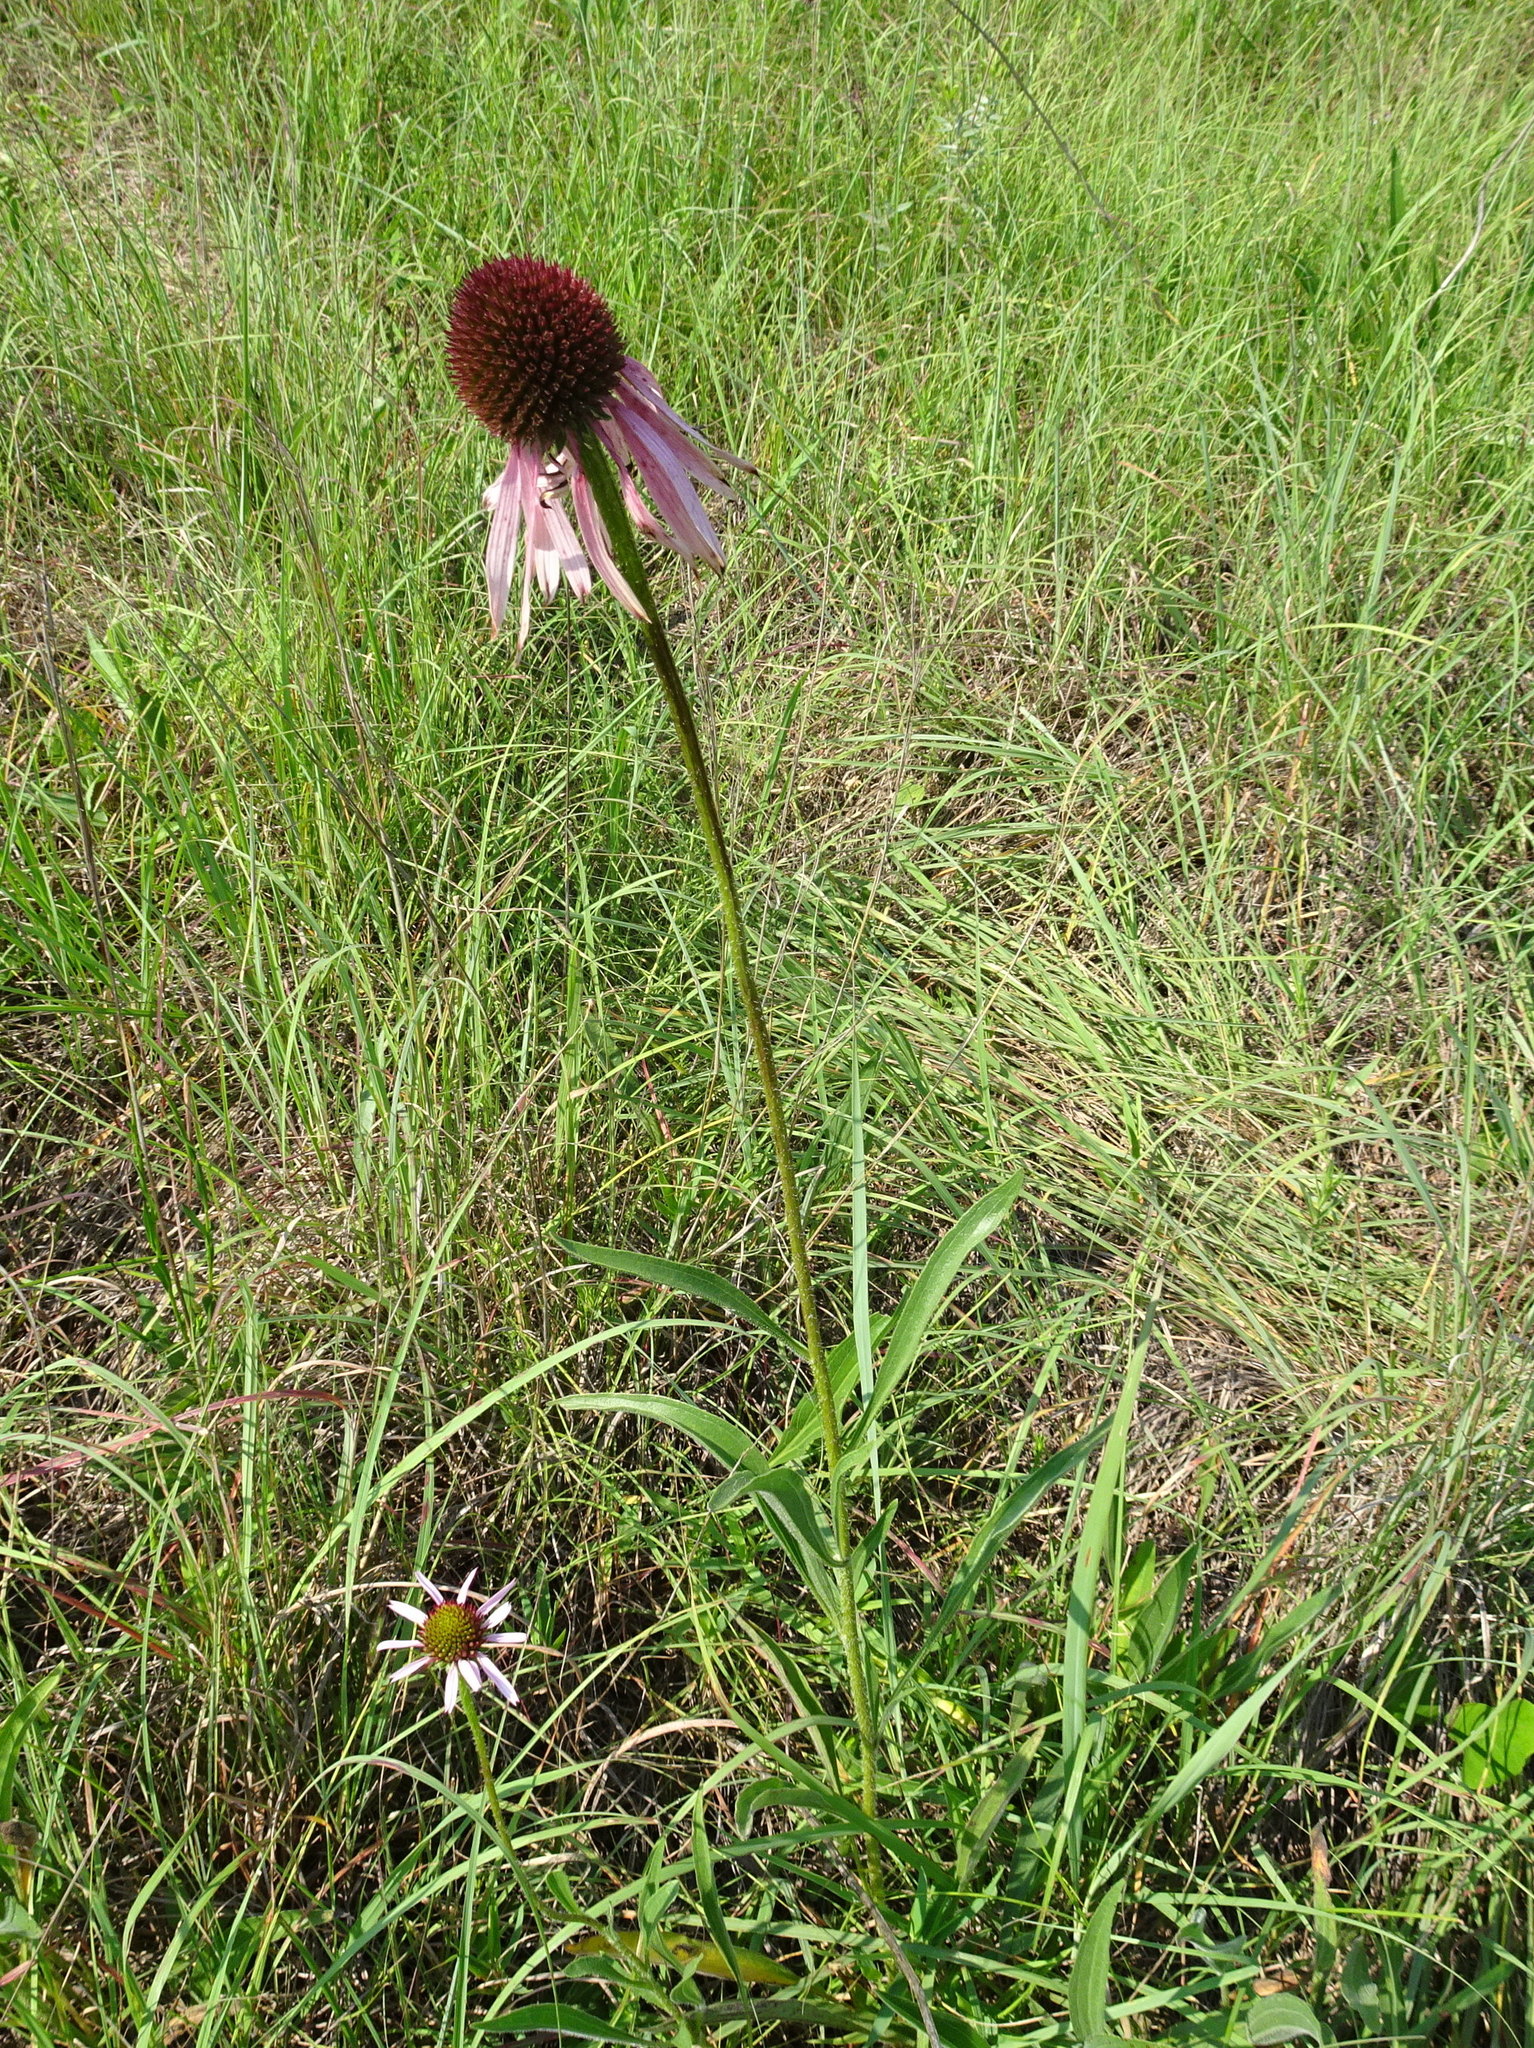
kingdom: Plantae
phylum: Tracheophyta
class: Magnoliopsida
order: Asterales
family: Asteraceae
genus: Echinacea
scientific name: Echinacea angustifolia
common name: Black-sampson echinacea
